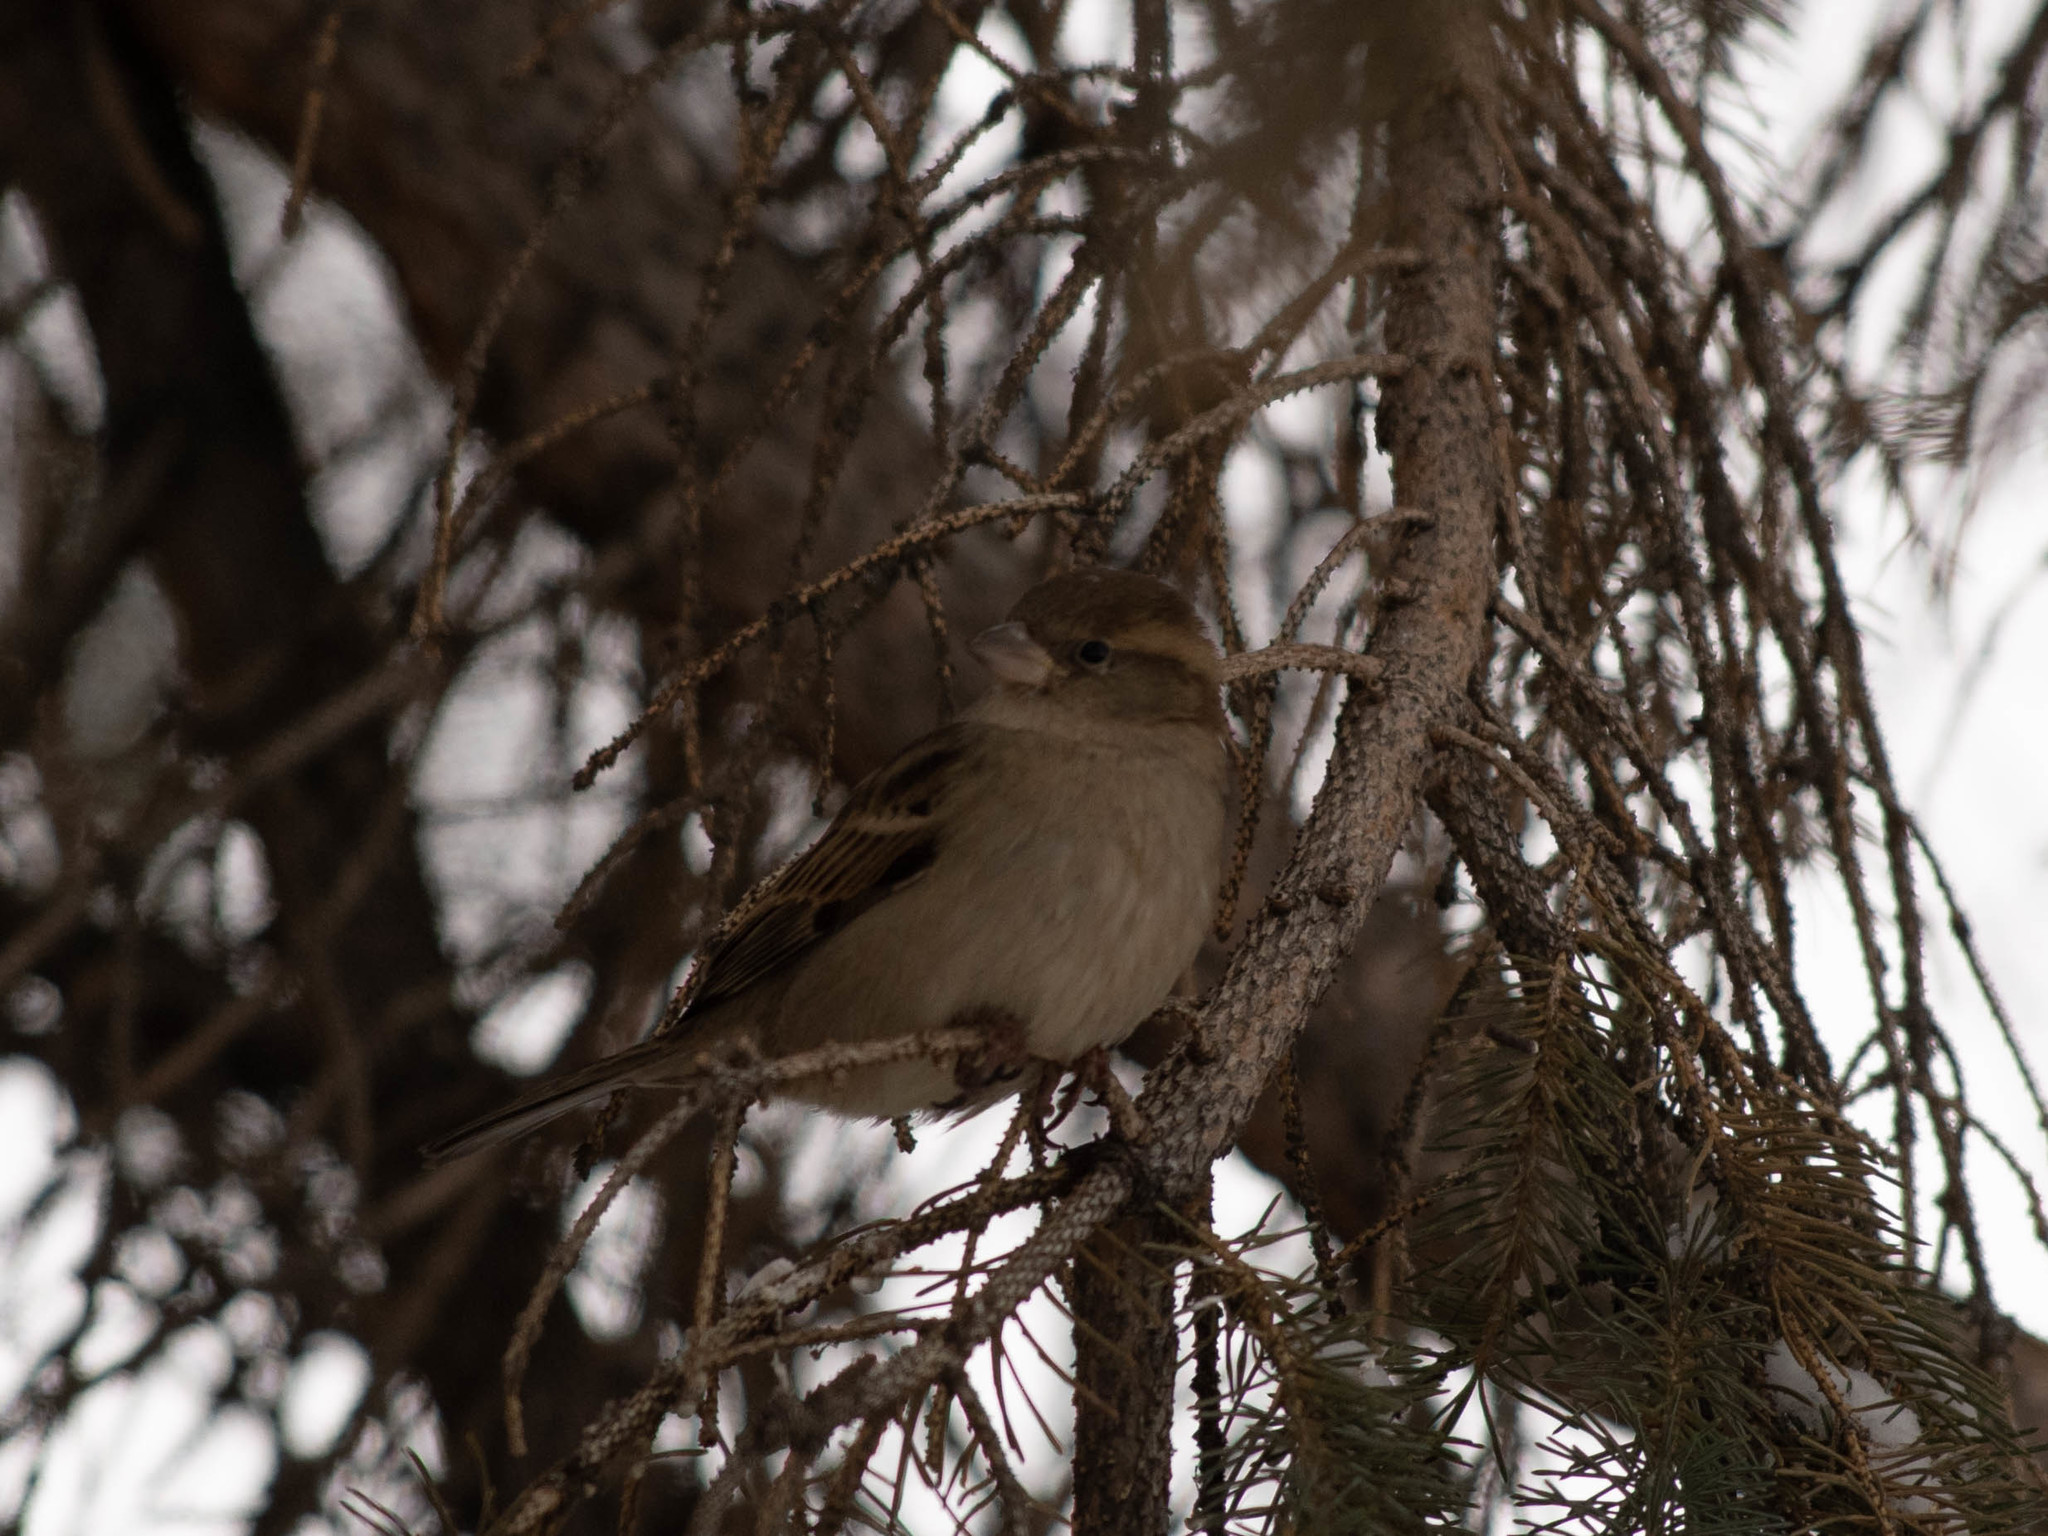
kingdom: Animalia
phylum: Chordata
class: Aves
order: Passeriformes
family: Passeridae
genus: Passer
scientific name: Passer domesticus
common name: House sparrow
